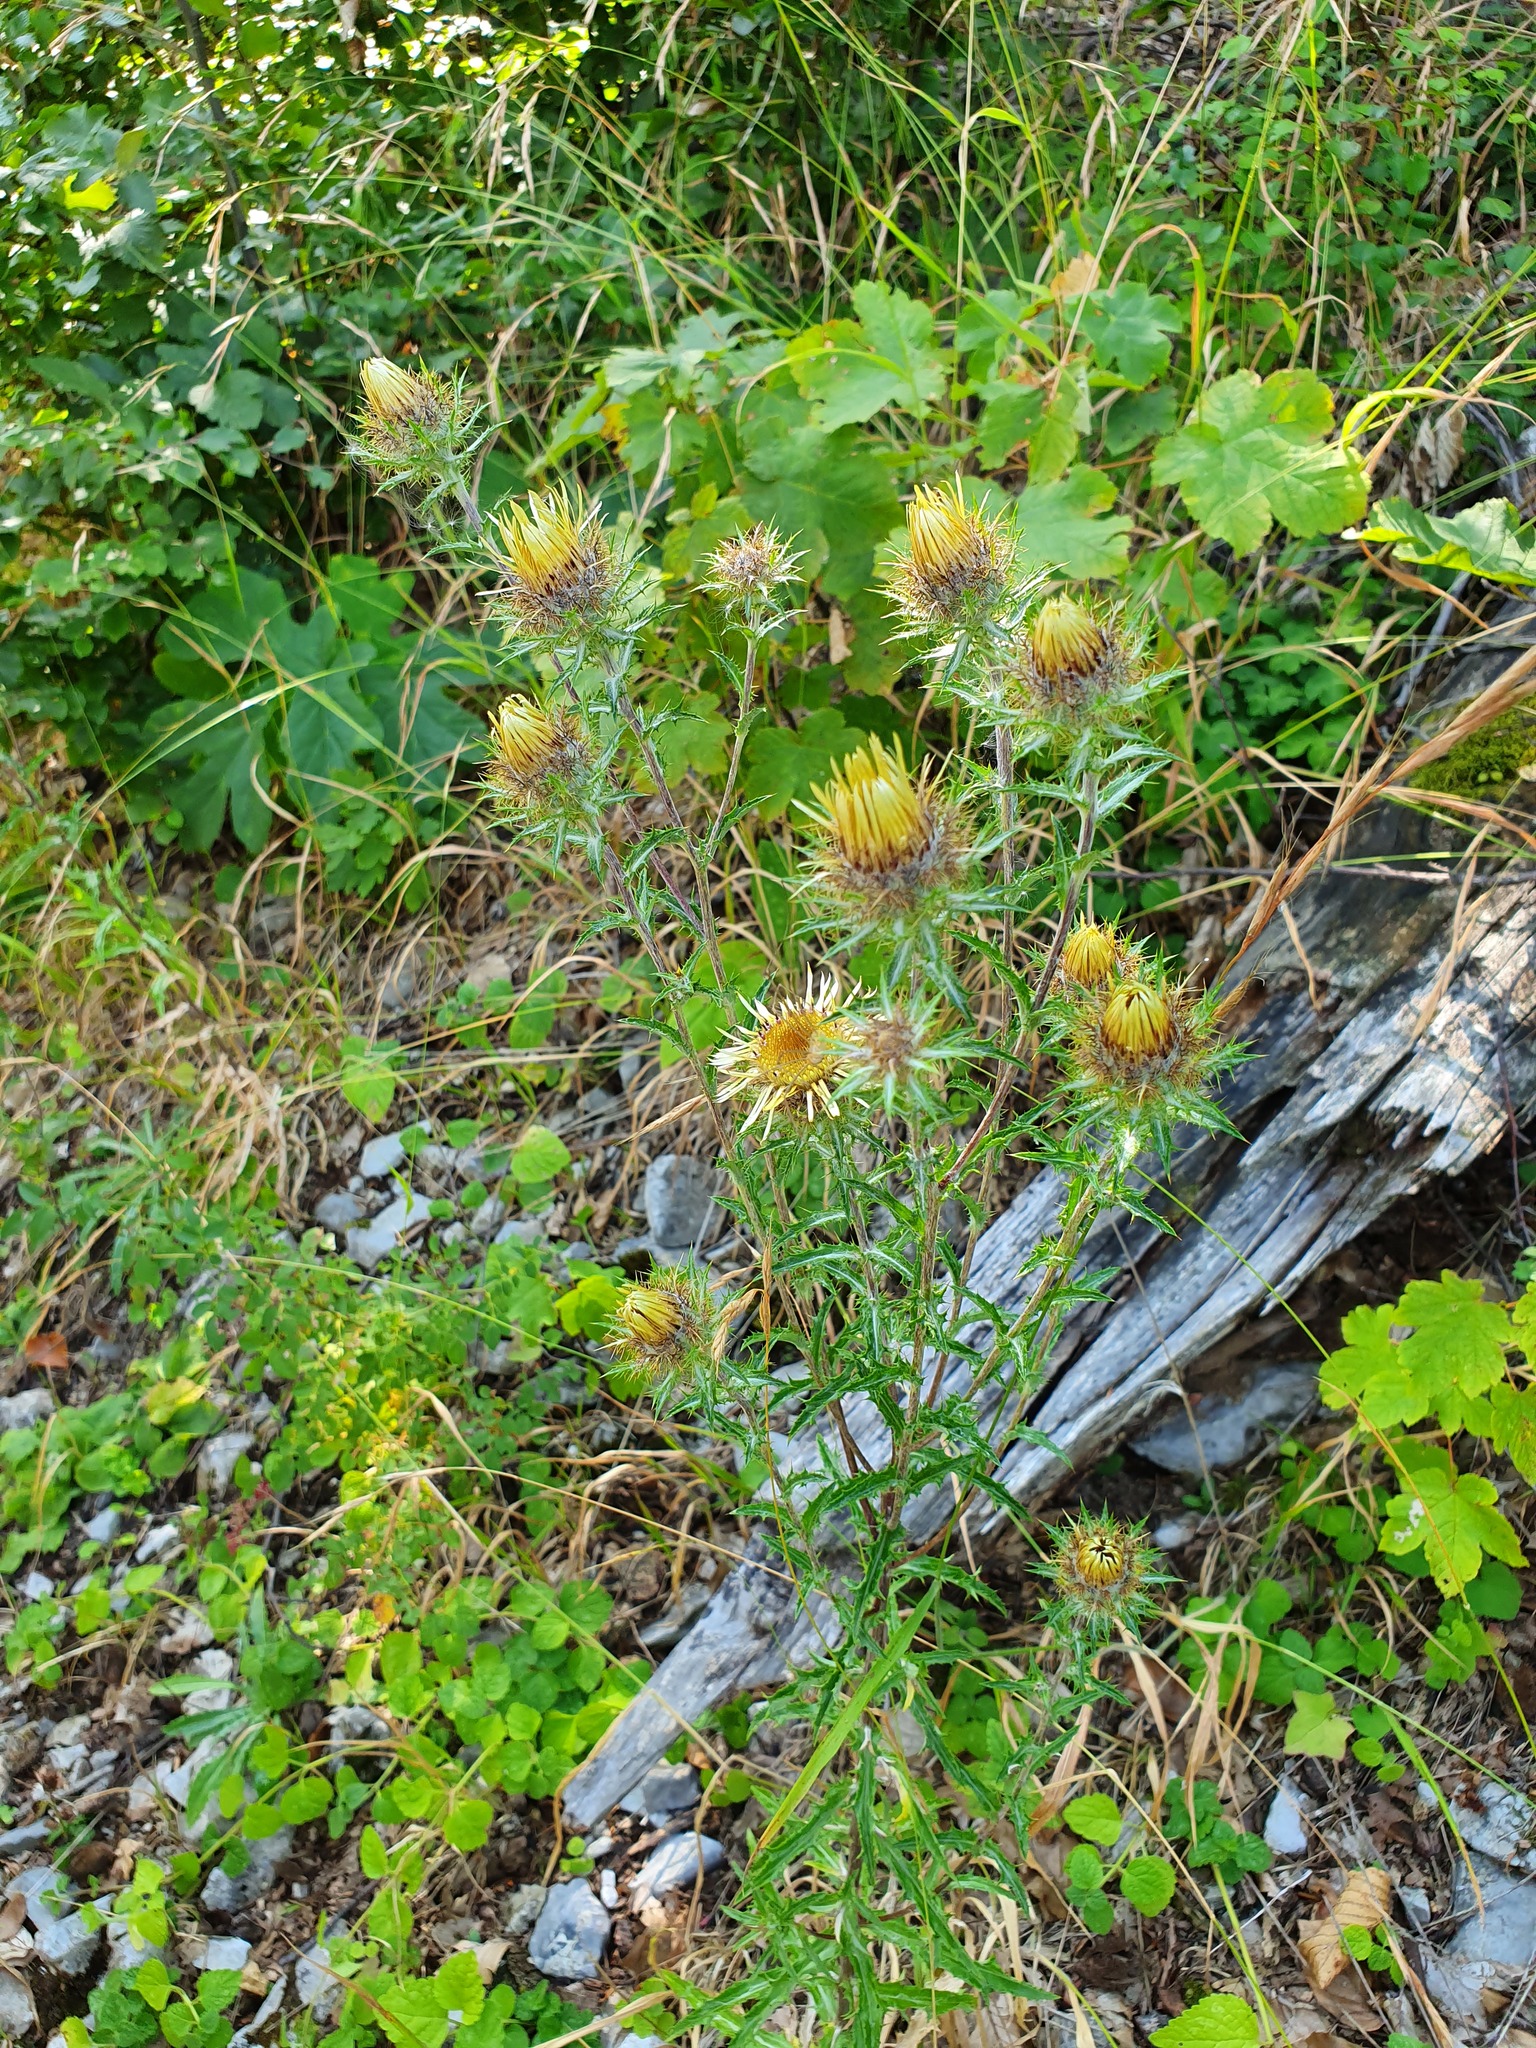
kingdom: Plantae
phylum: Tracheophyta
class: Magnoliopsida
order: Asterales
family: Asteraceae
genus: Carlina
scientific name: Carlina vulgaris
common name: Carline thistle
